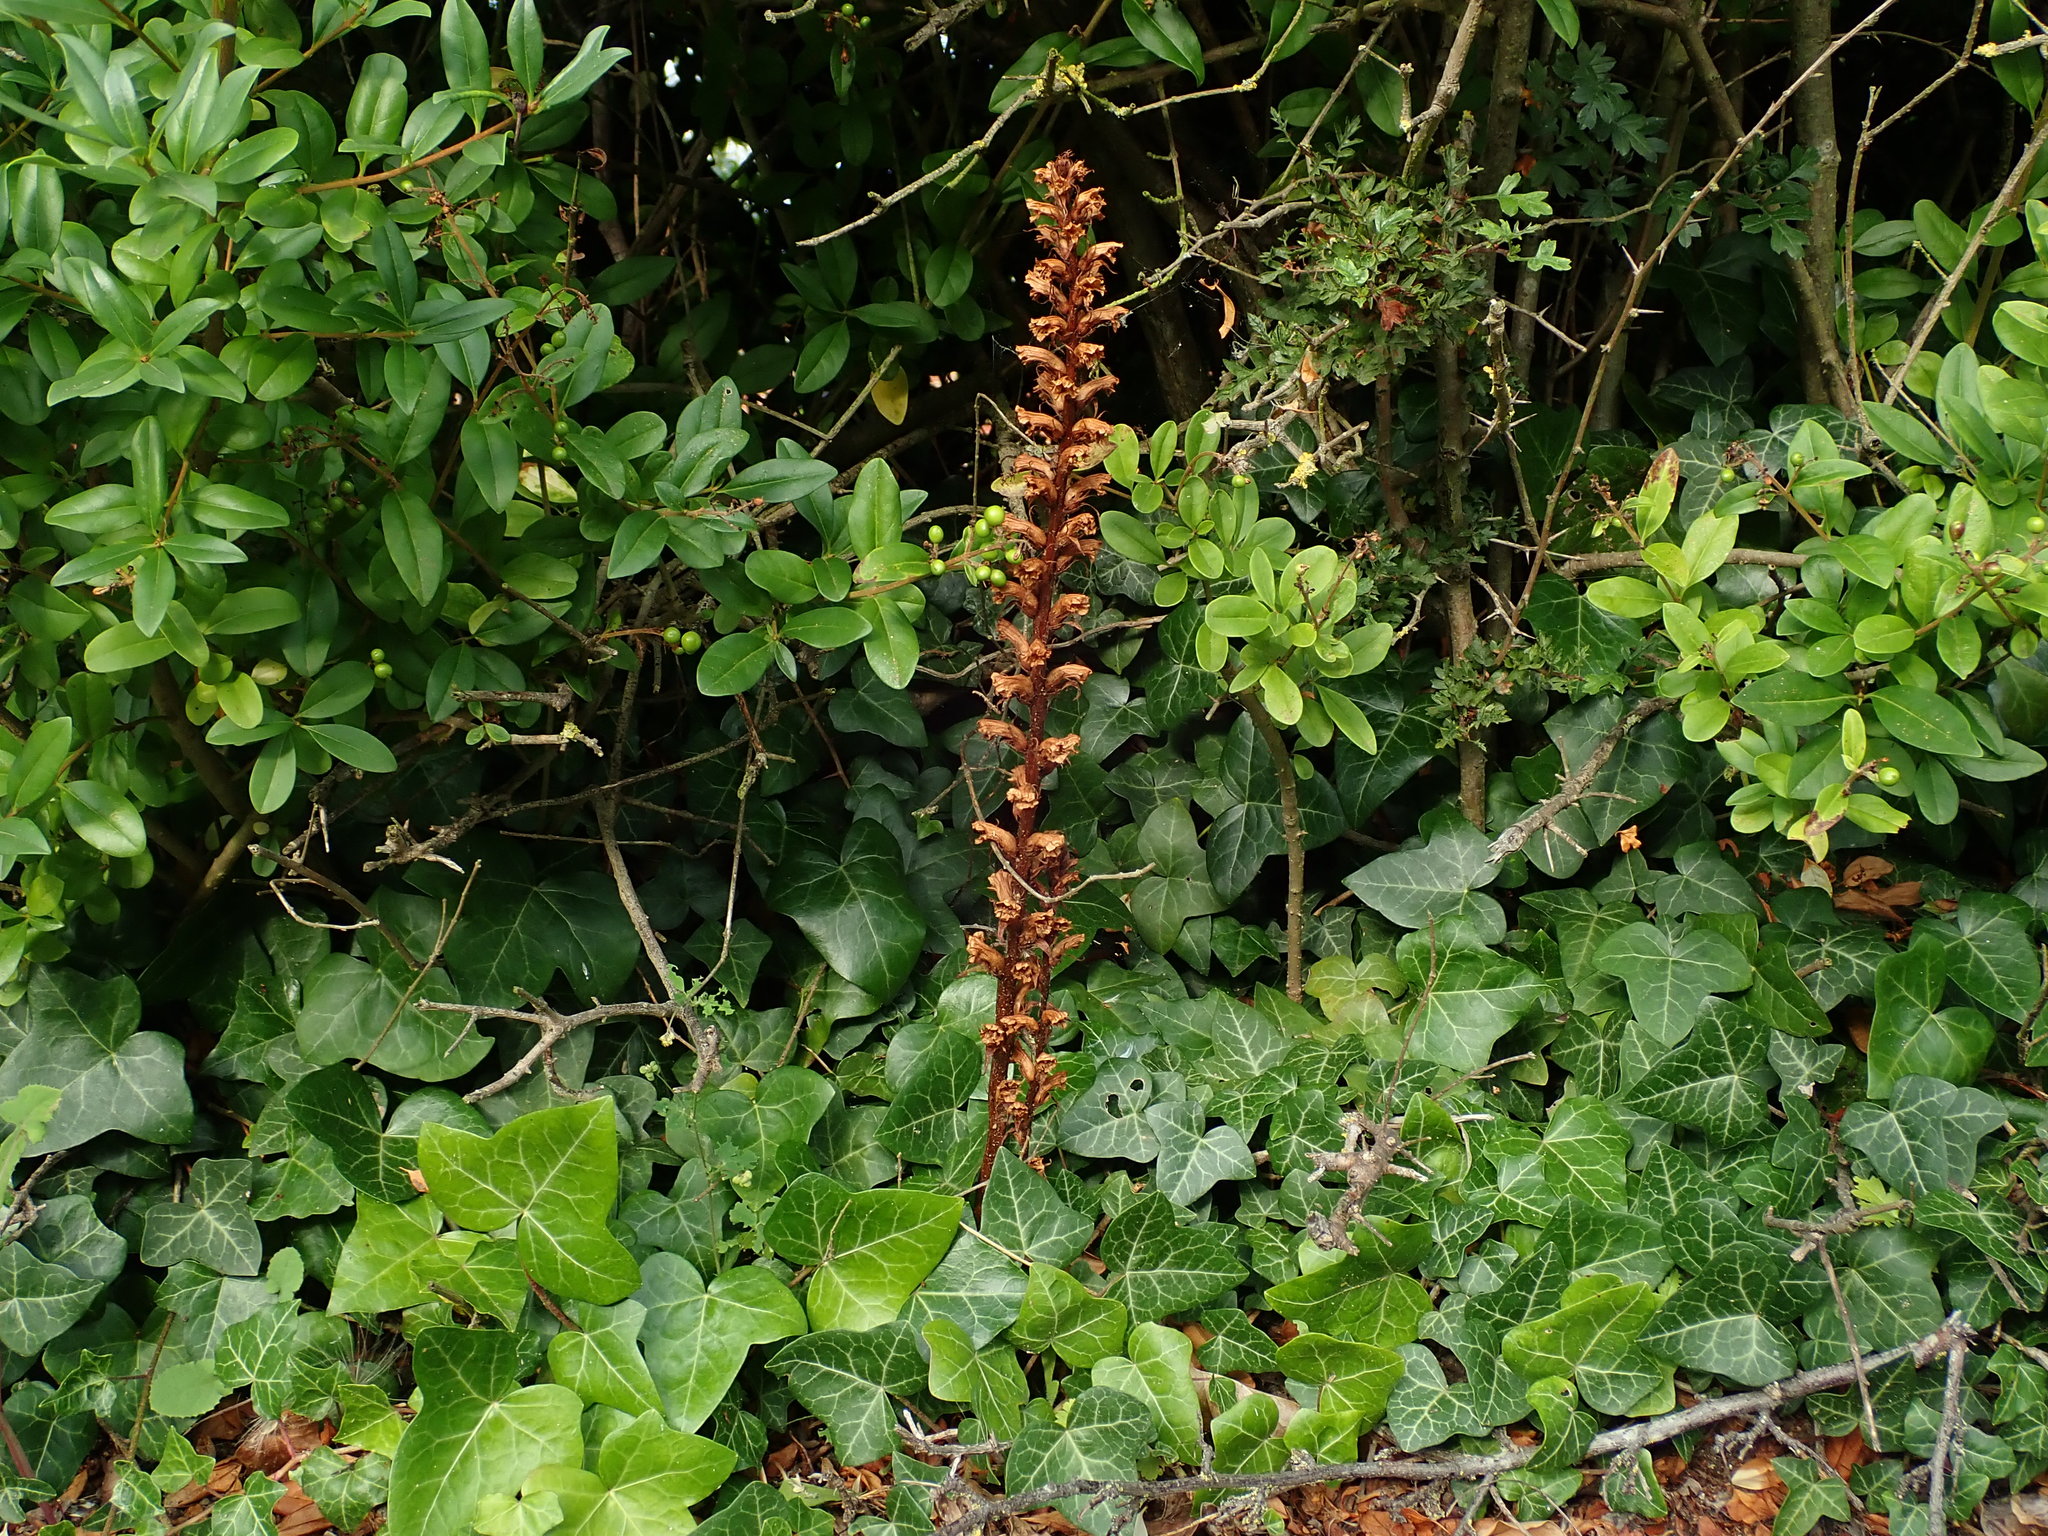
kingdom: Plantae
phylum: Tracheophyta
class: Magnoliopsida
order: Lamiales
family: Orobanchaceae
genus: Orobanche
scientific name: Orobanche hederae
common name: Ivy broomrape
